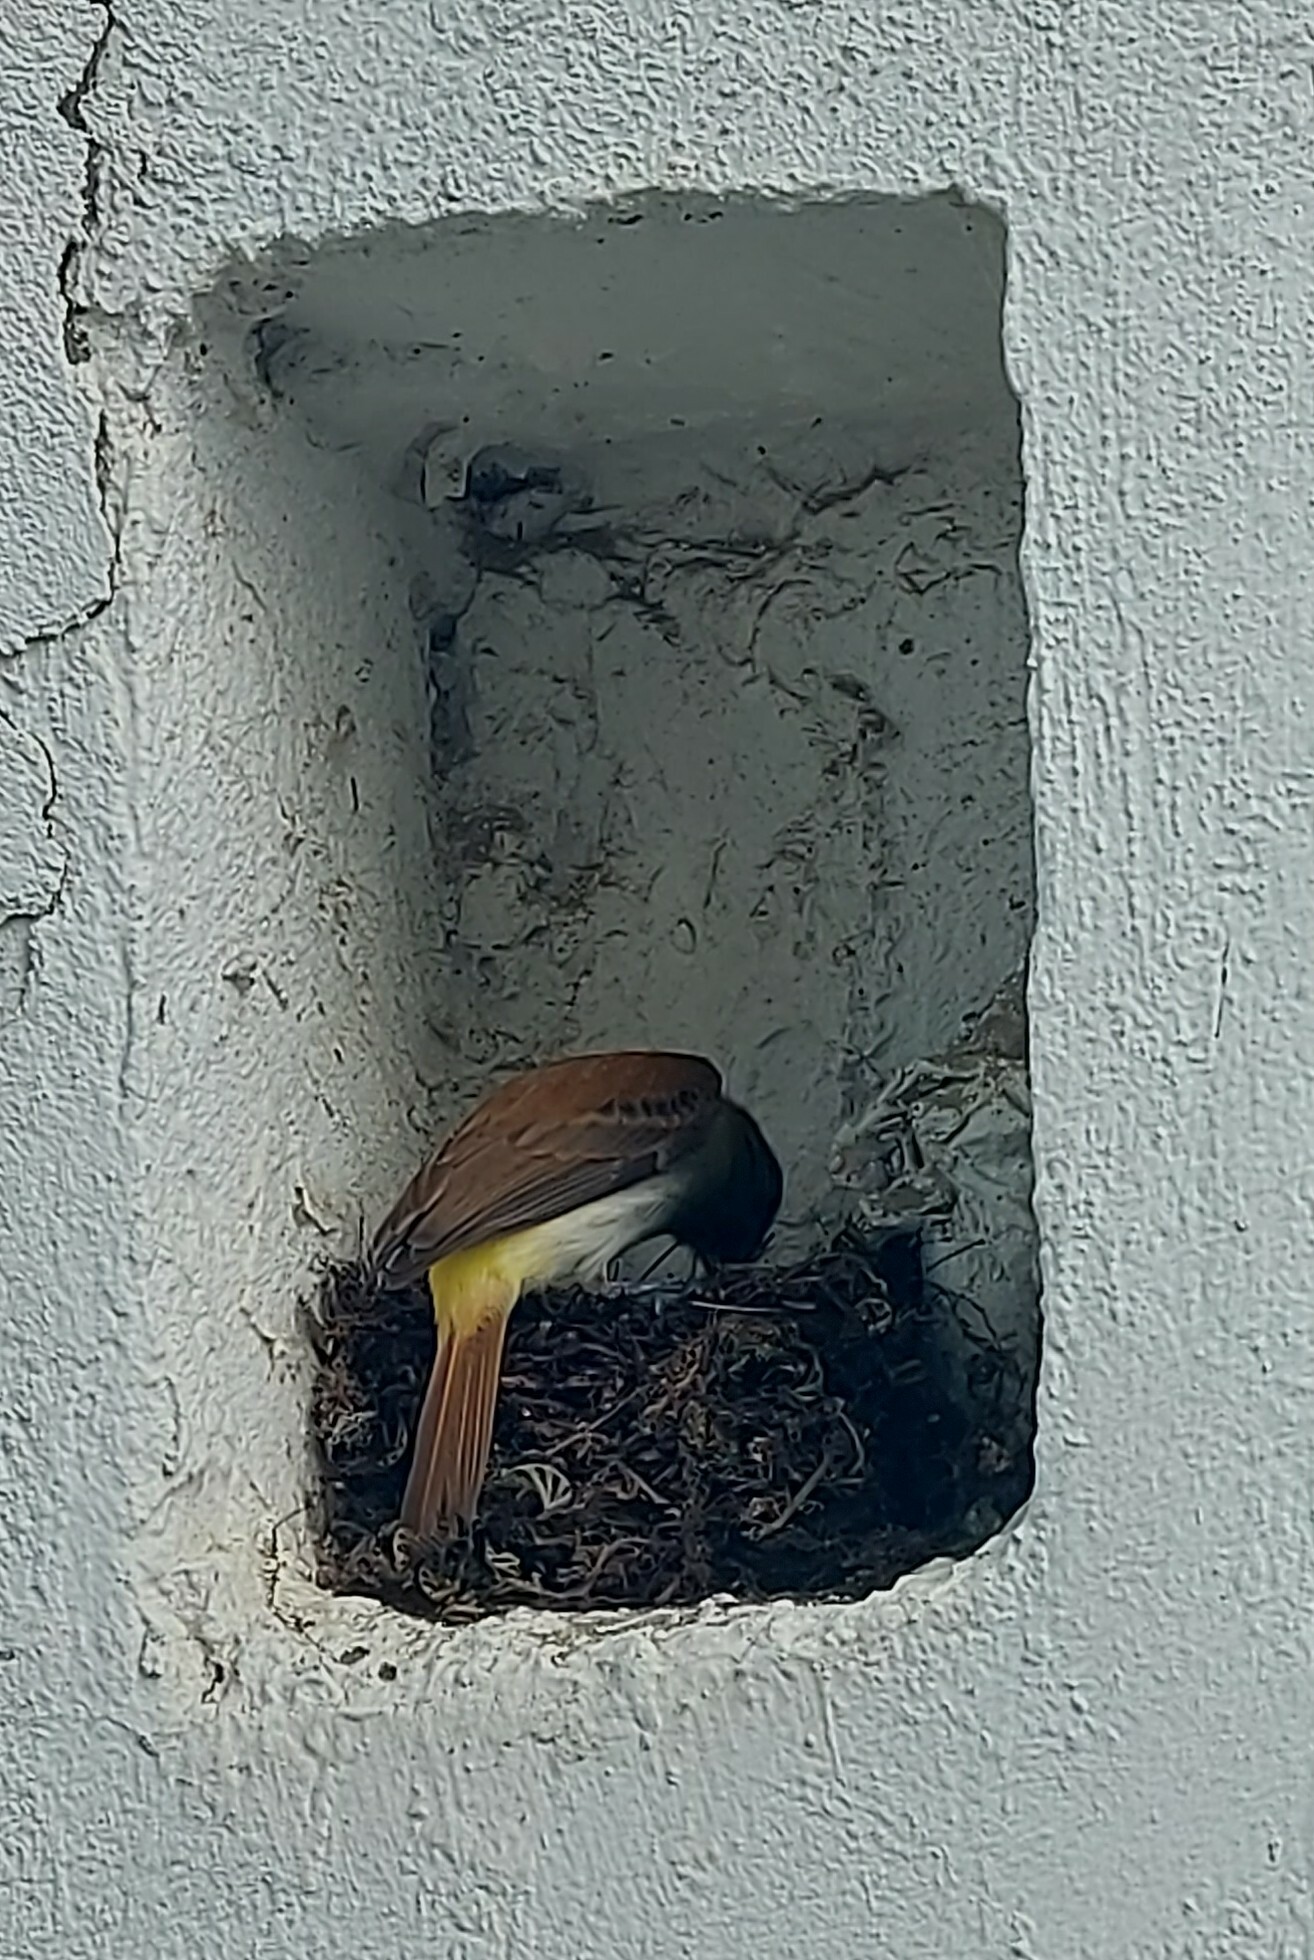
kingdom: Animalia
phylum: Chordata
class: Aves
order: Passeriformes
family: Tyrannidae
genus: Attila
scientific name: Attila spadiceus
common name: Bright-rumped attila
